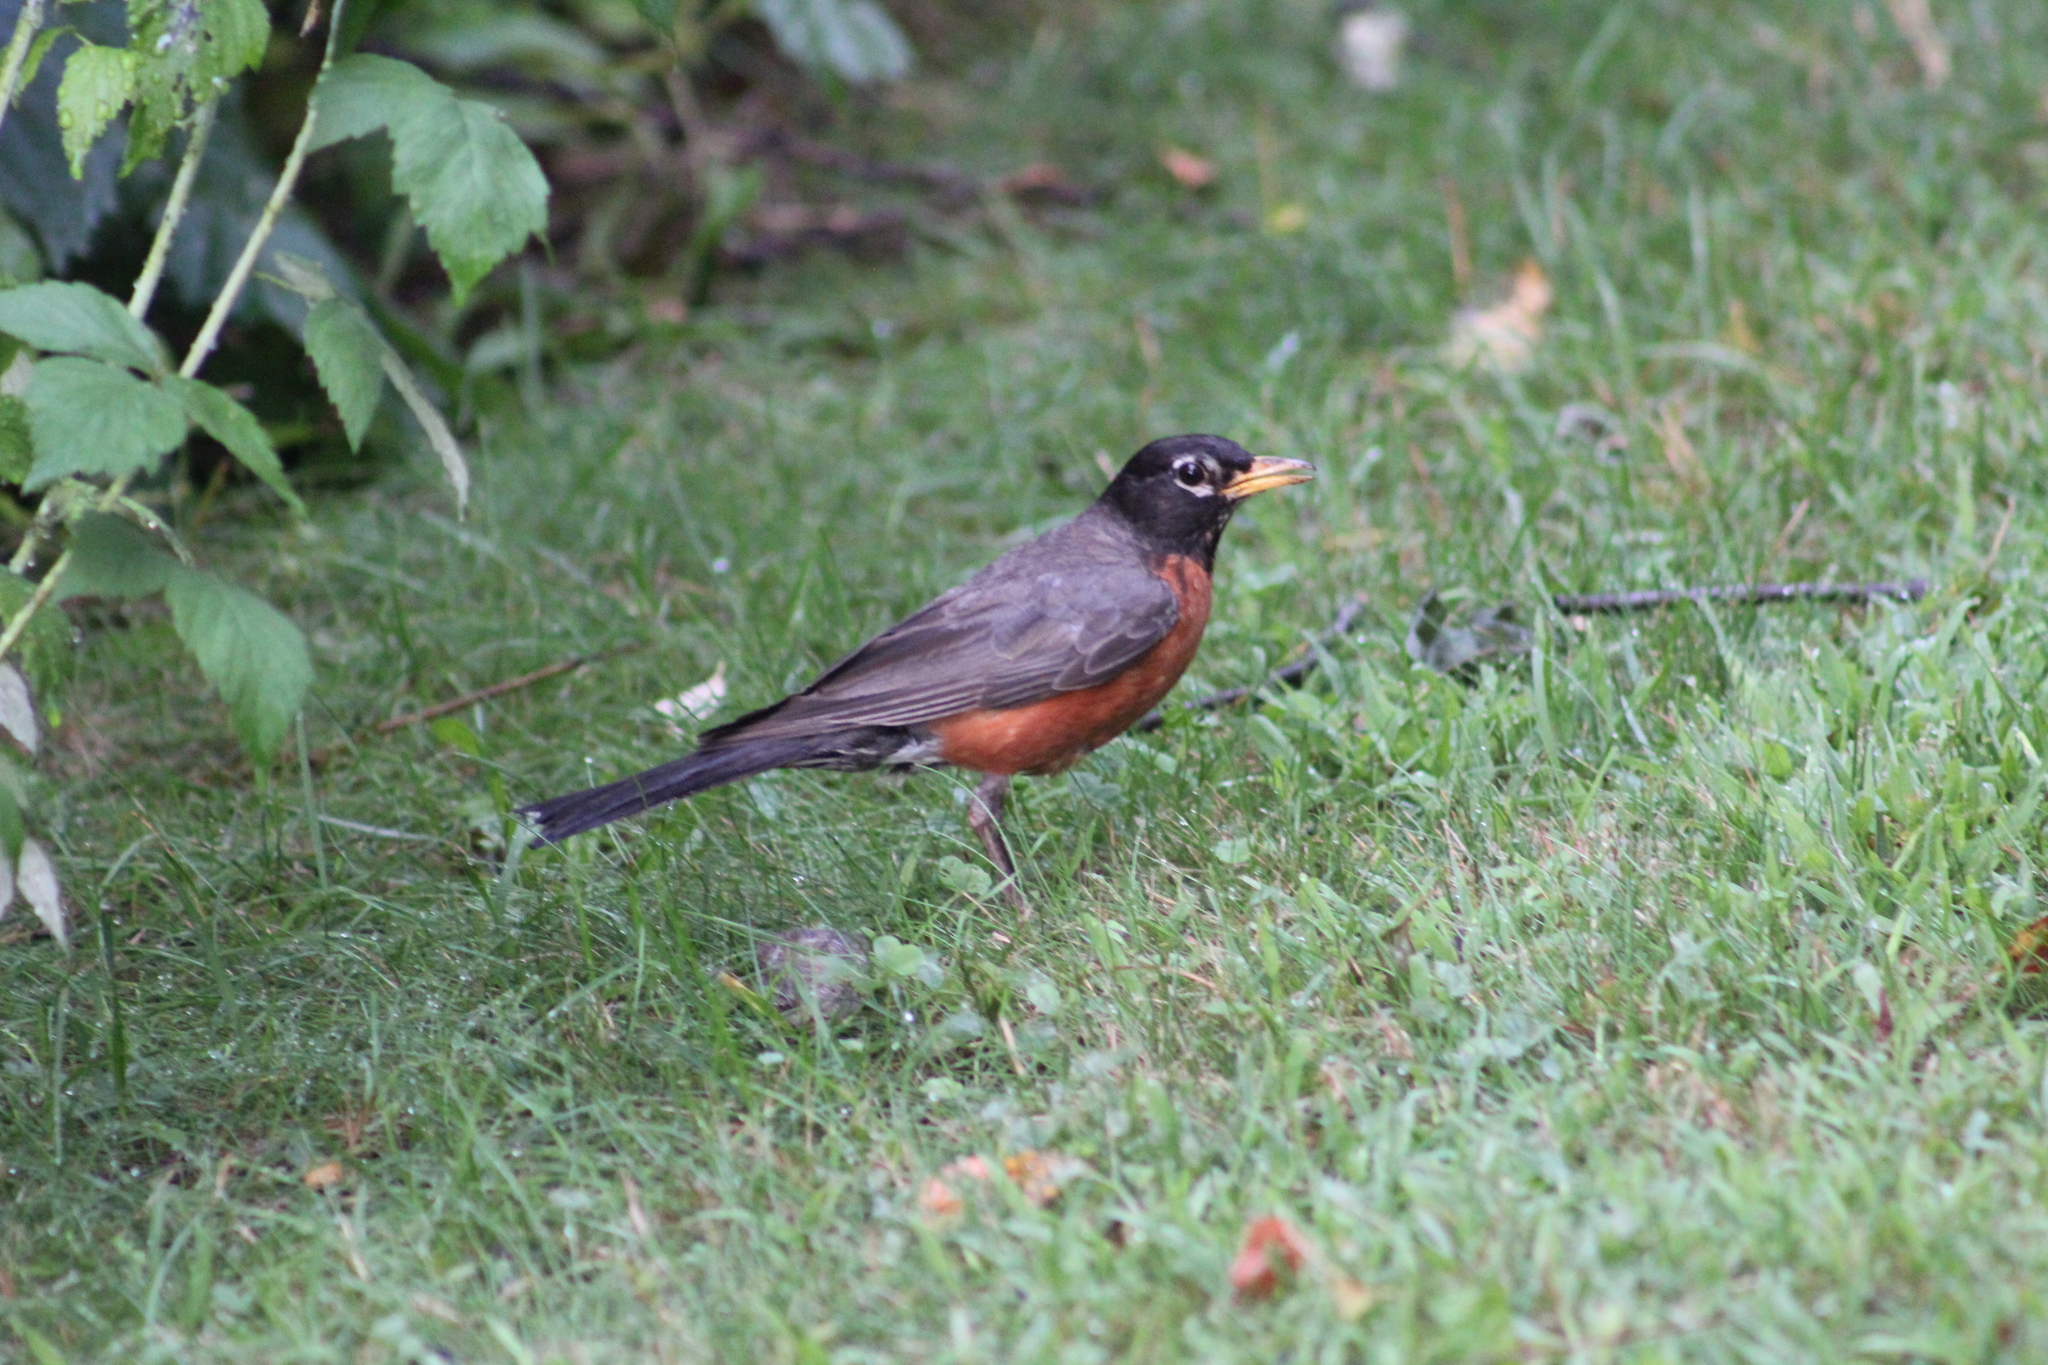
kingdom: Animalia
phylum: Chordata
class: Aves
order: Passeriformes
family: Turdidae
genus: Turdus
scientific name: Turdus migratorius
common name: American robin
